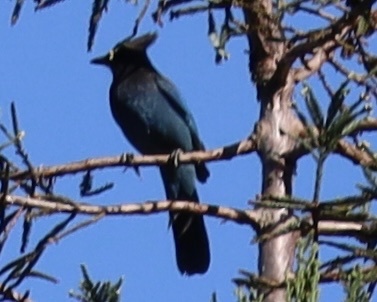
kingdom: Animalia
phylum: Chordata
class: Aves
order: Passeriformes
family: Corvidae
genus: Cyanocitta
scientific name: Cyanocitta stelleri
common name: Steller's jay
